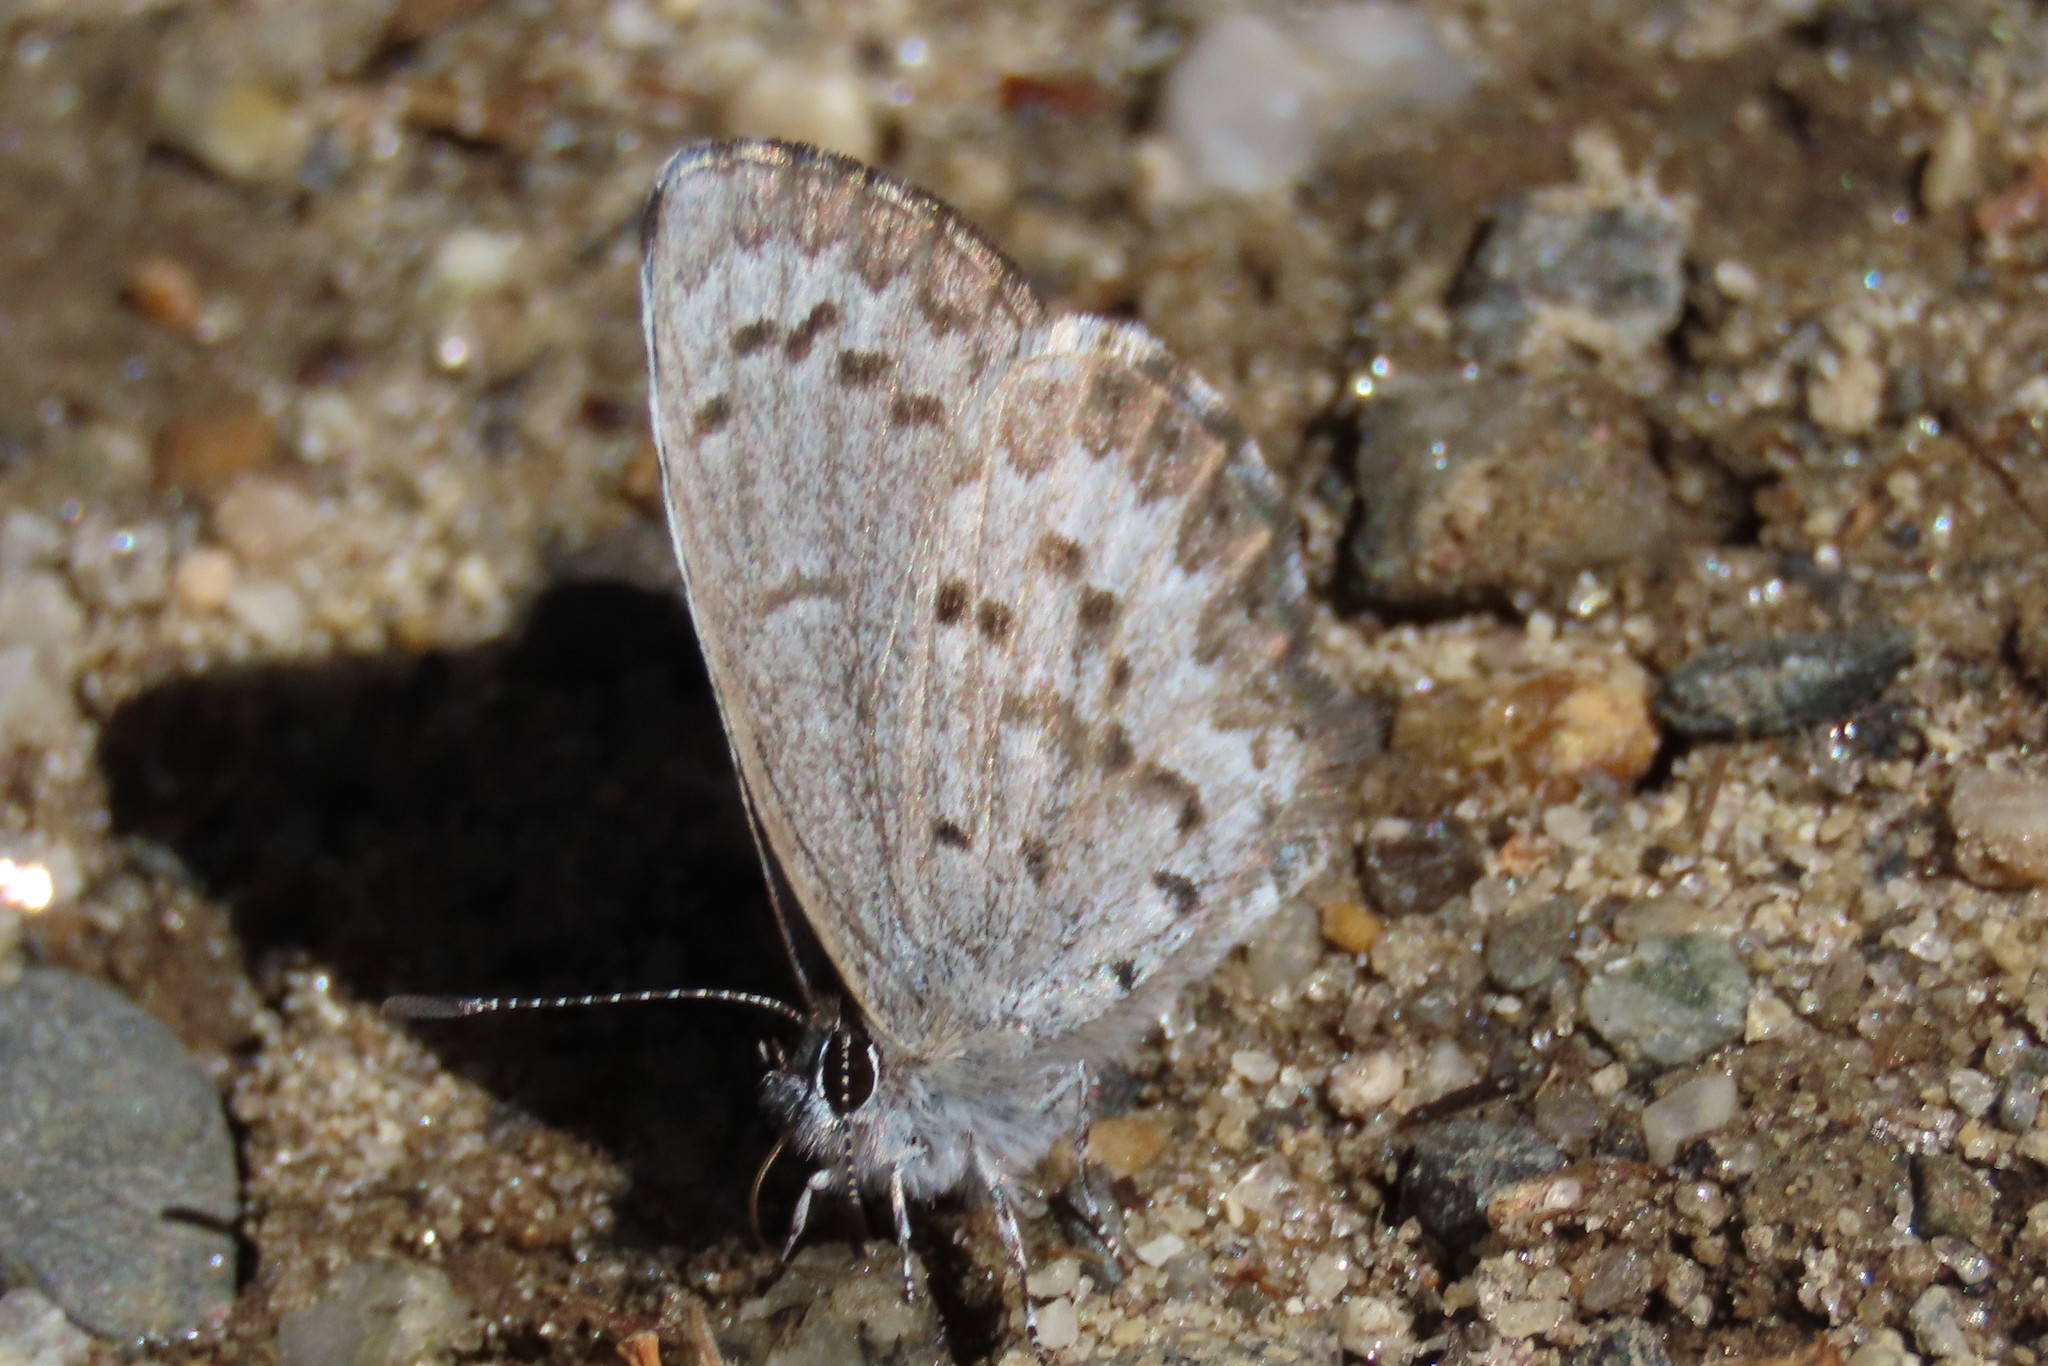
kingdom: Animalia
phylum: Arthropoda
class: Insecta
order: Lepidoptera
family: Lycaenidae
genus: Celastrina
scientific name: Celastrina ladon
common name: Spring azure
